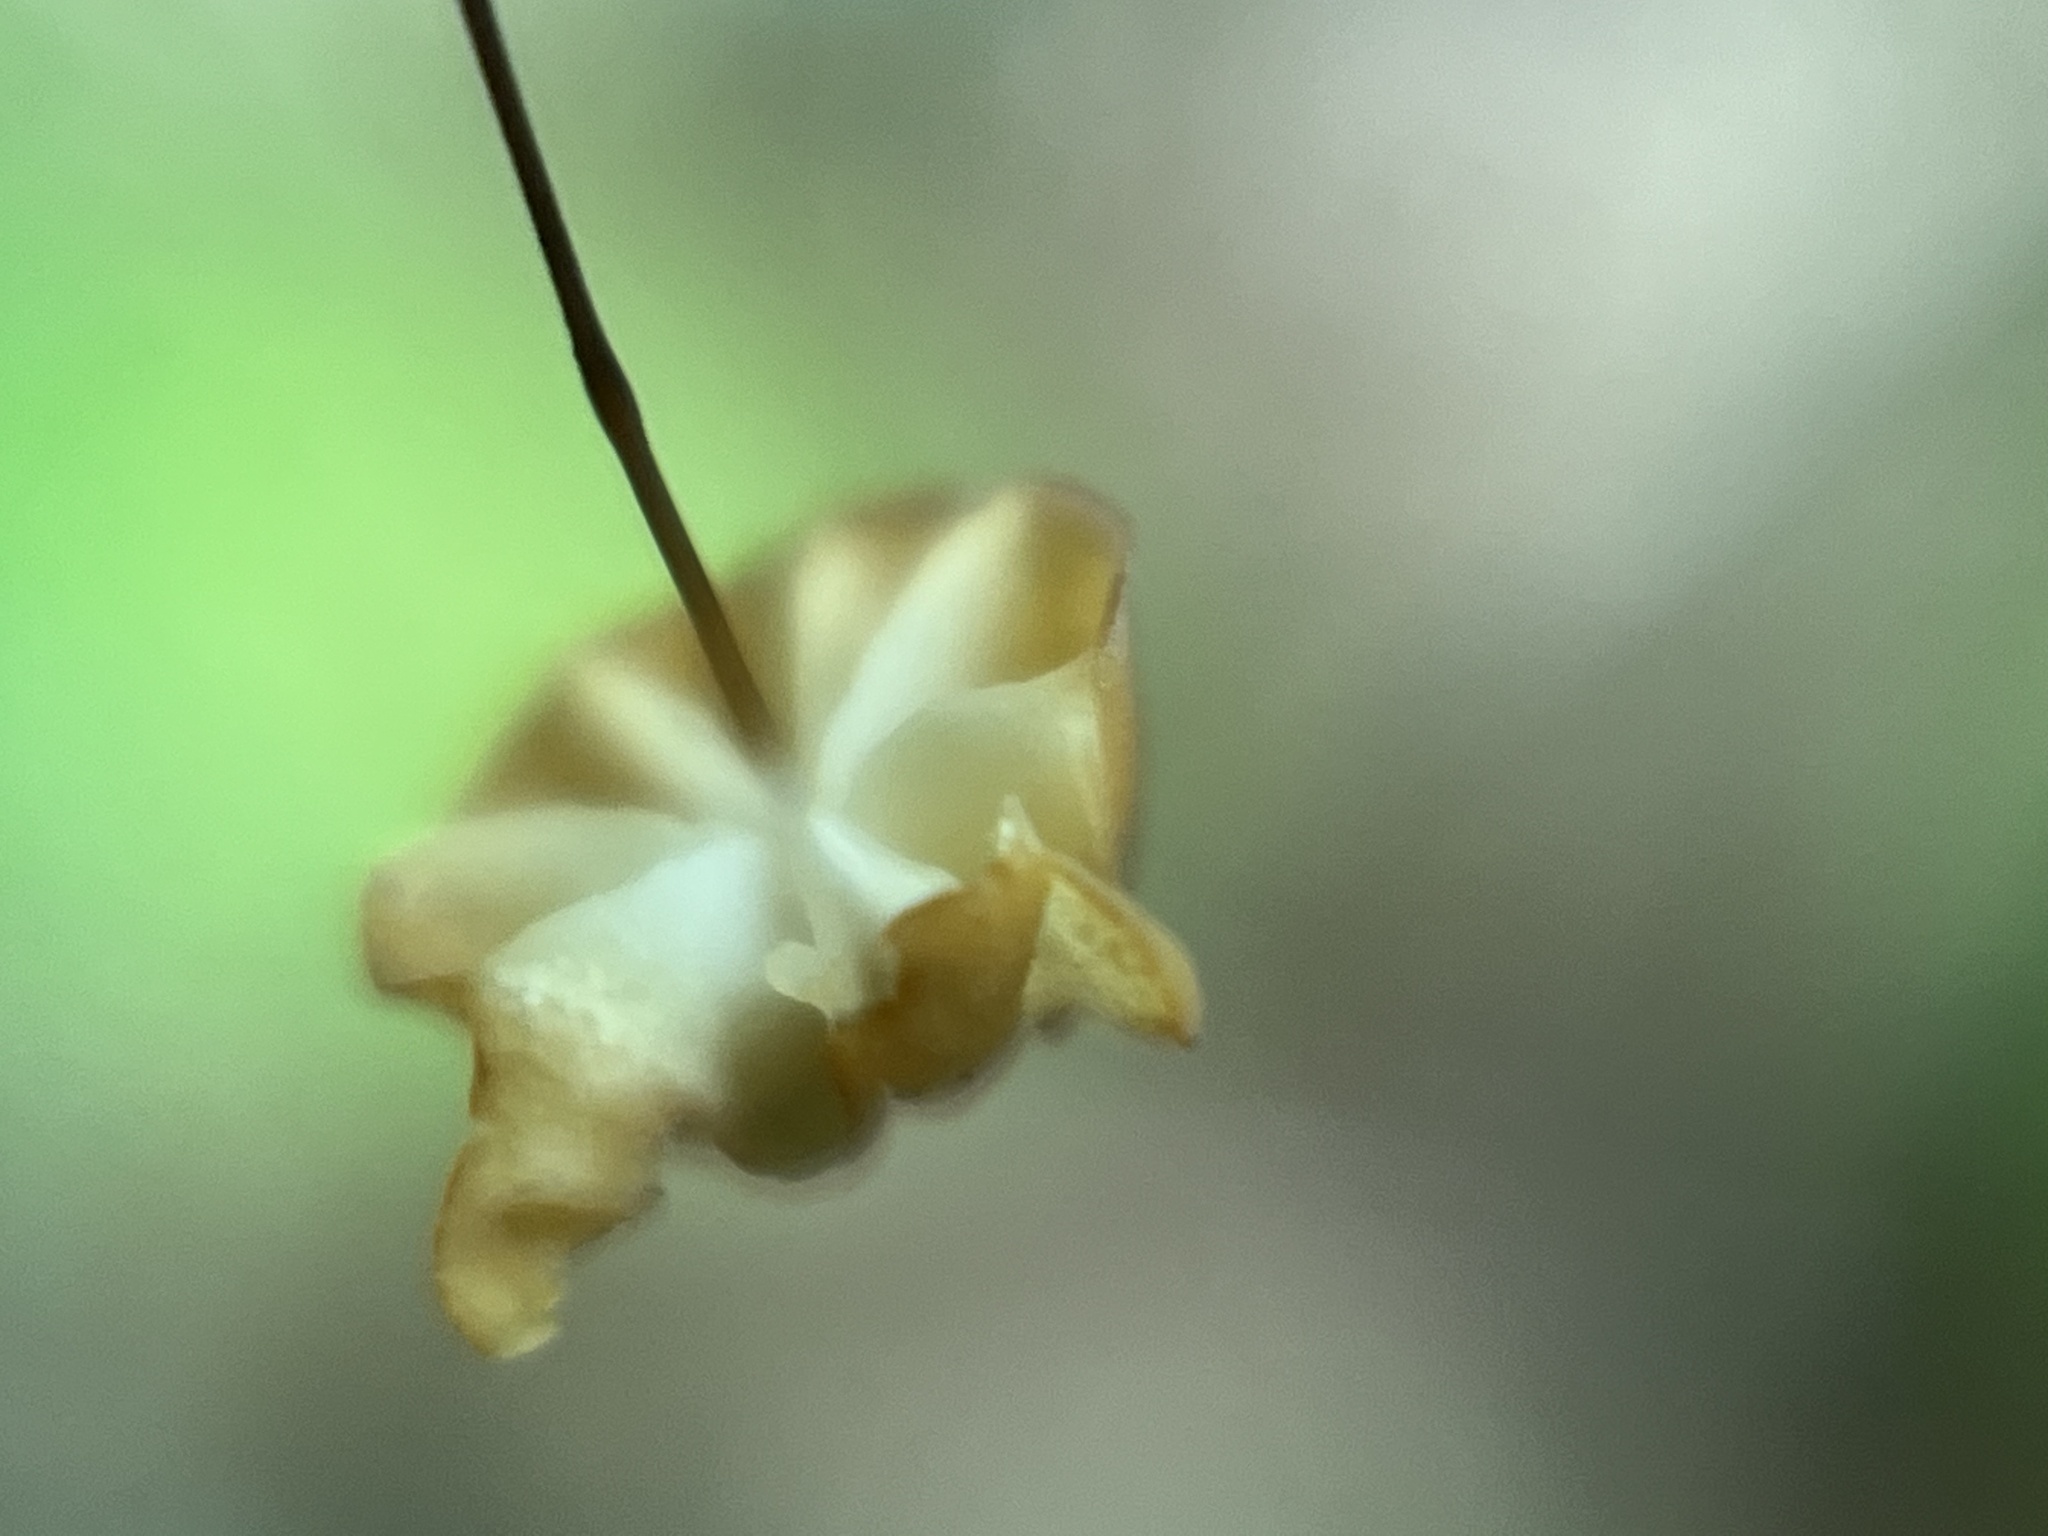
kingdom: Fungi
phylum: Basidiomycota
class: Agaricomycetes
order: Agaricales
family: Marasmiaceae
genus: Marasmius
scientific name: Marasmius guyanensis
